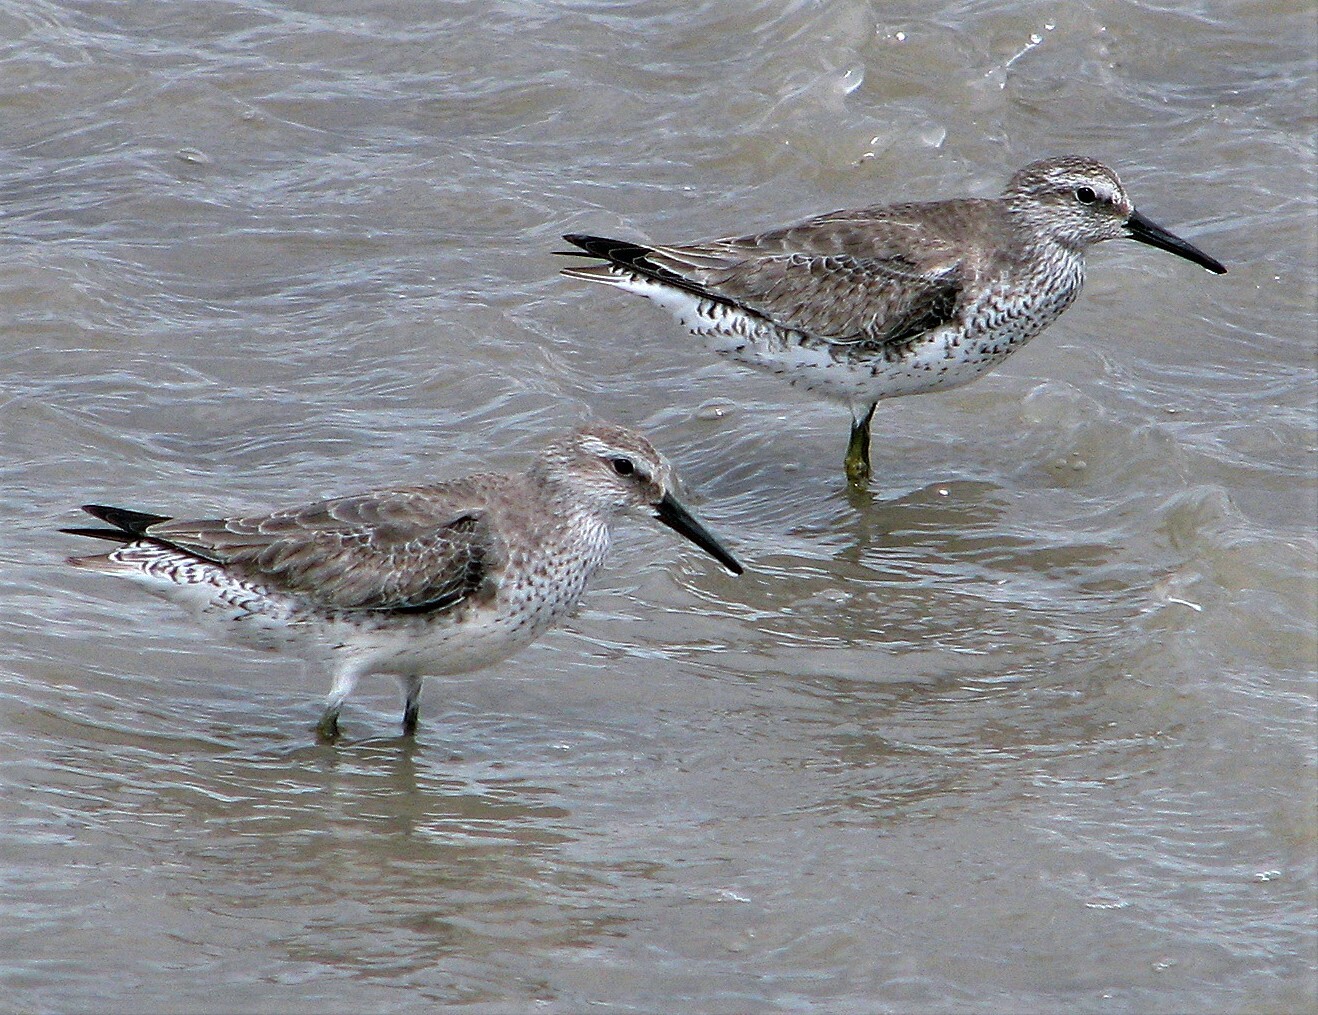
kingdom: Animalia
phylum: Chordata
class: Aves
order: Charadriiformes
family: Scolopacidae
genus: Calidris
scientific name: Calidris canutus
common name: Red knot
